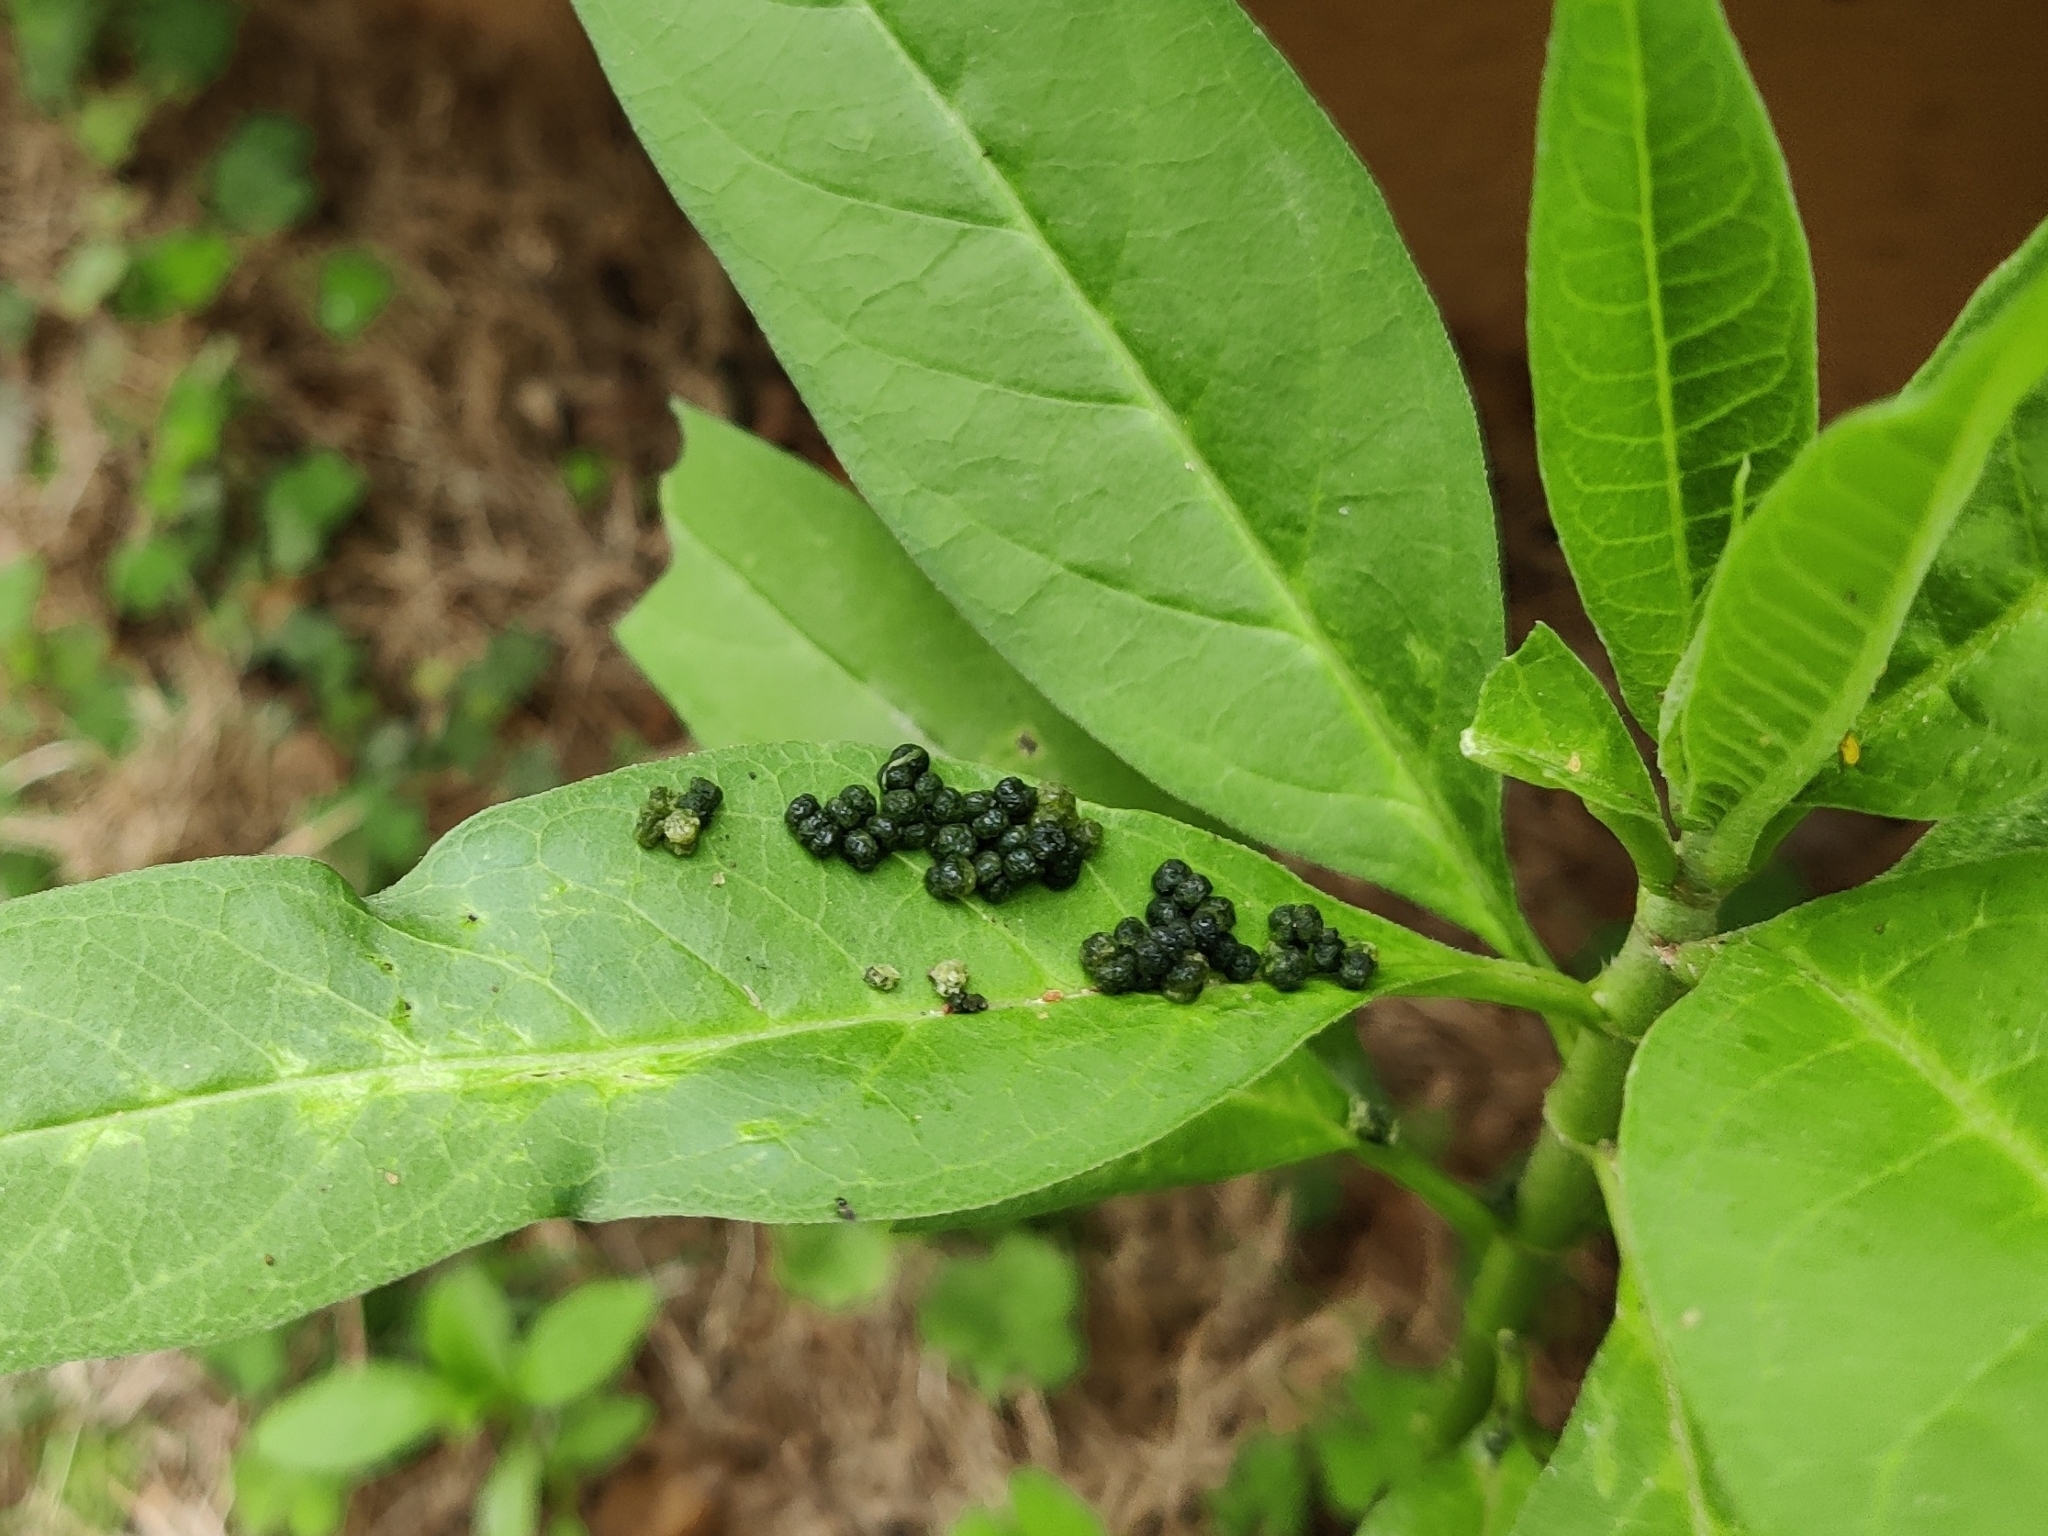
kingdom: Animalia
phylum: Arthropoda
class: Insecta
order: Lepidoptera
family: Nymphalidae
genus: Danaus
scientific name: Danaus chrysippus
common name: Plain tiger
